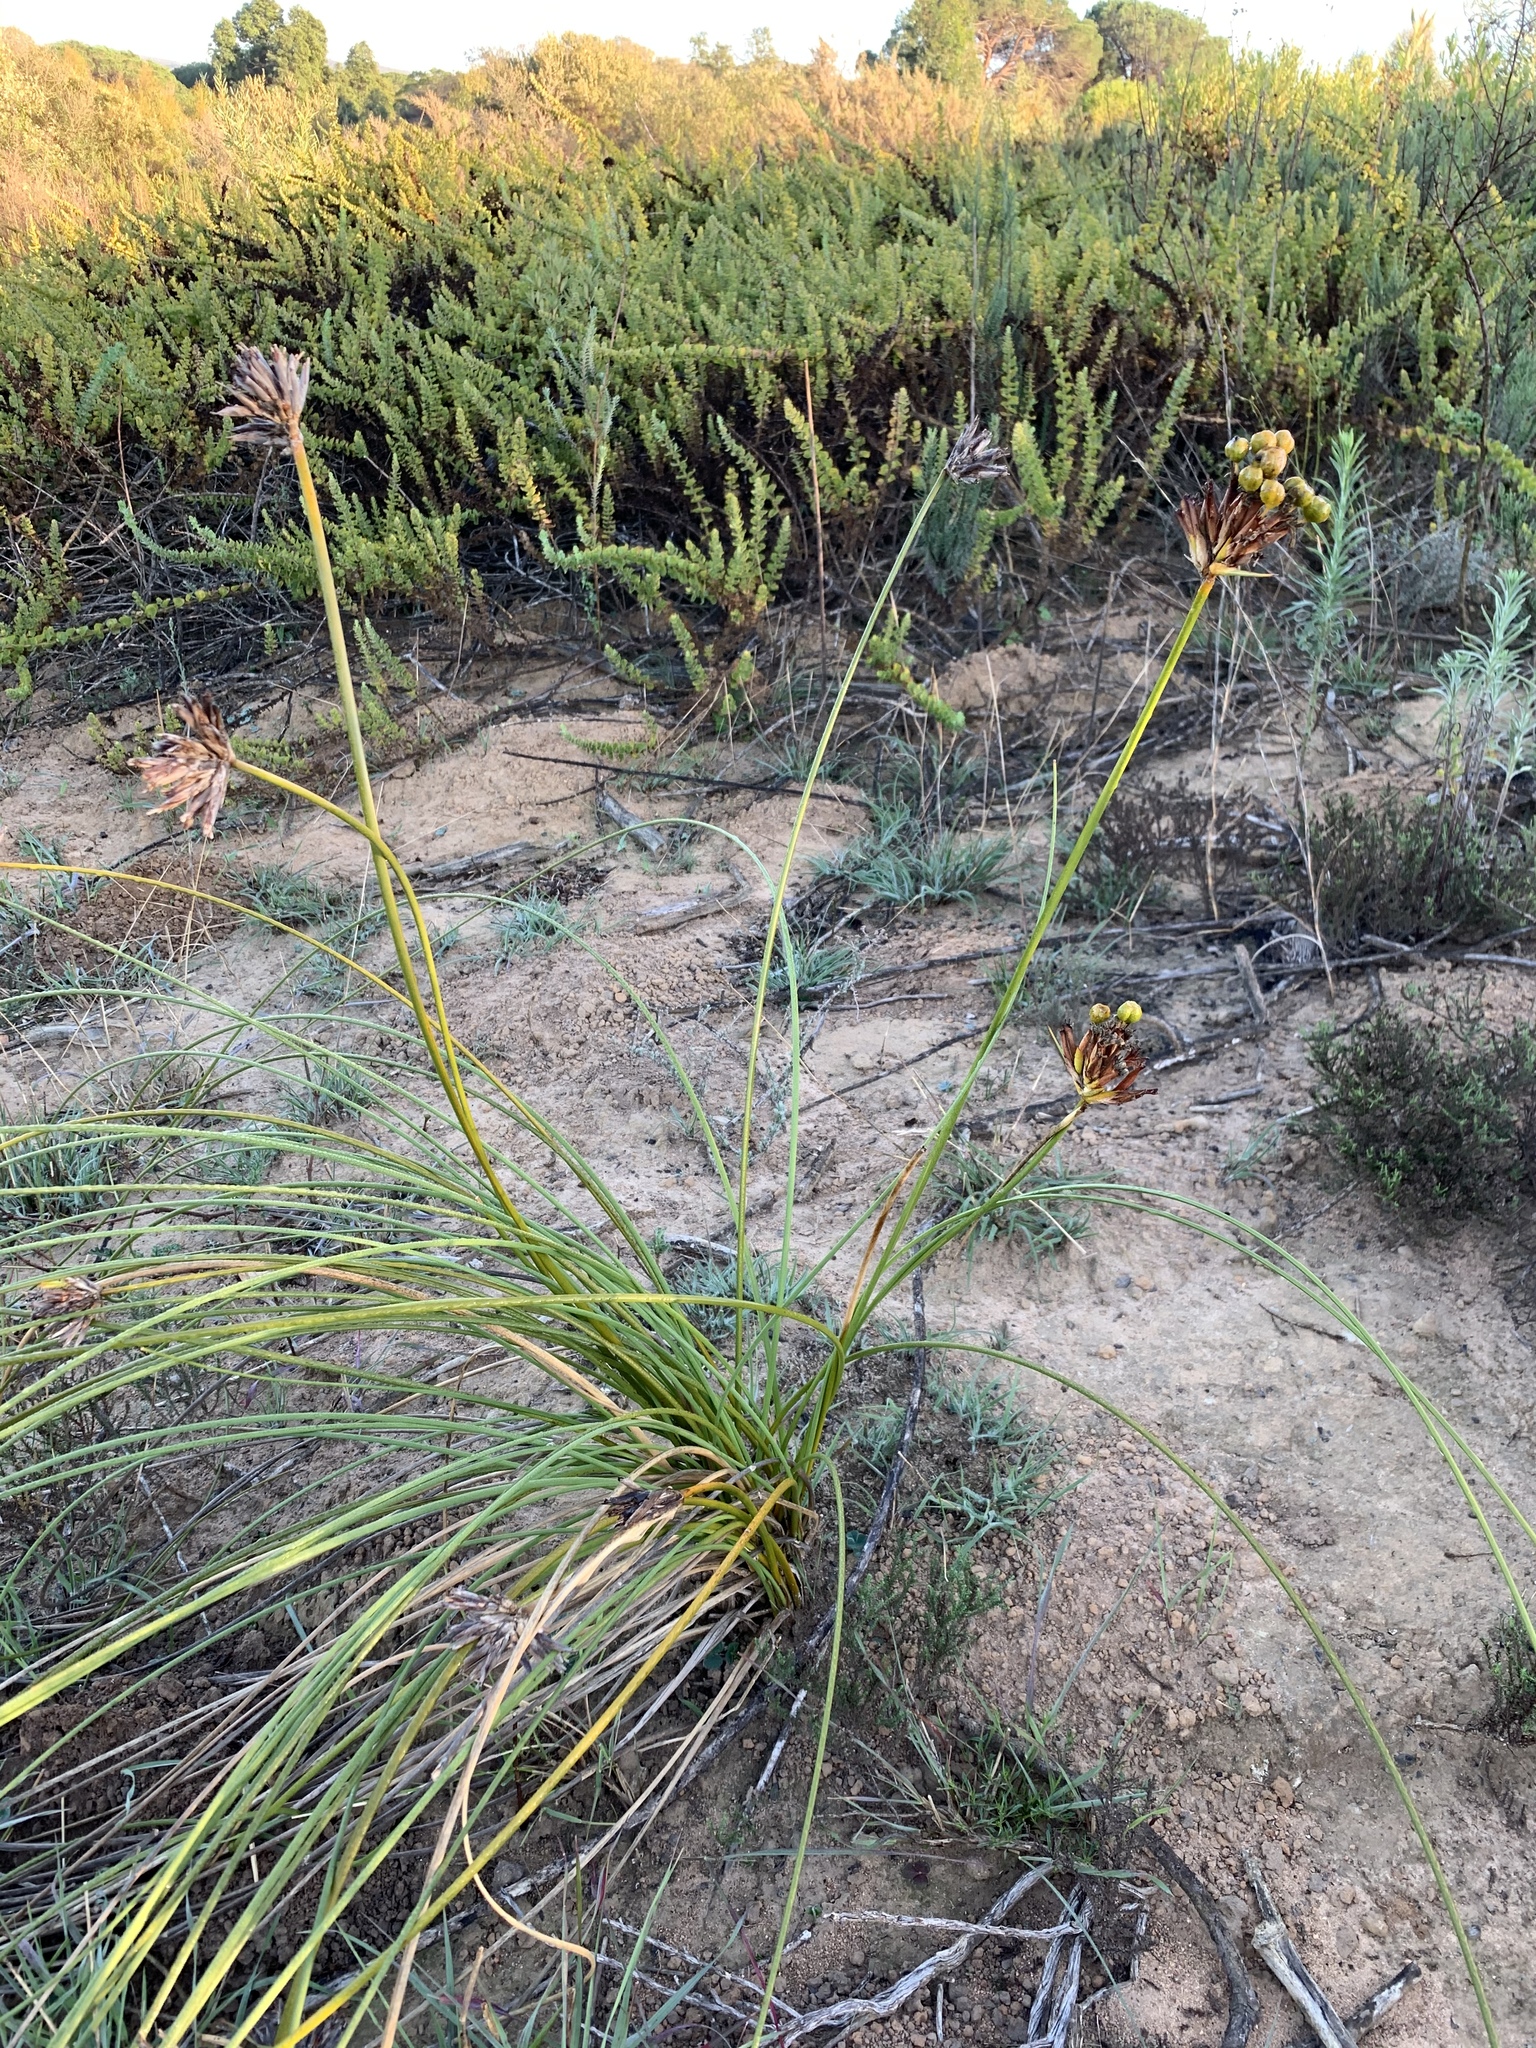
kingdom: Plantae
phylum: Tracheophyta
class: Liliopsida
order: Asparagales
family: Iridaceae
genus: Bobartia
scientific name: Bobartia indica
